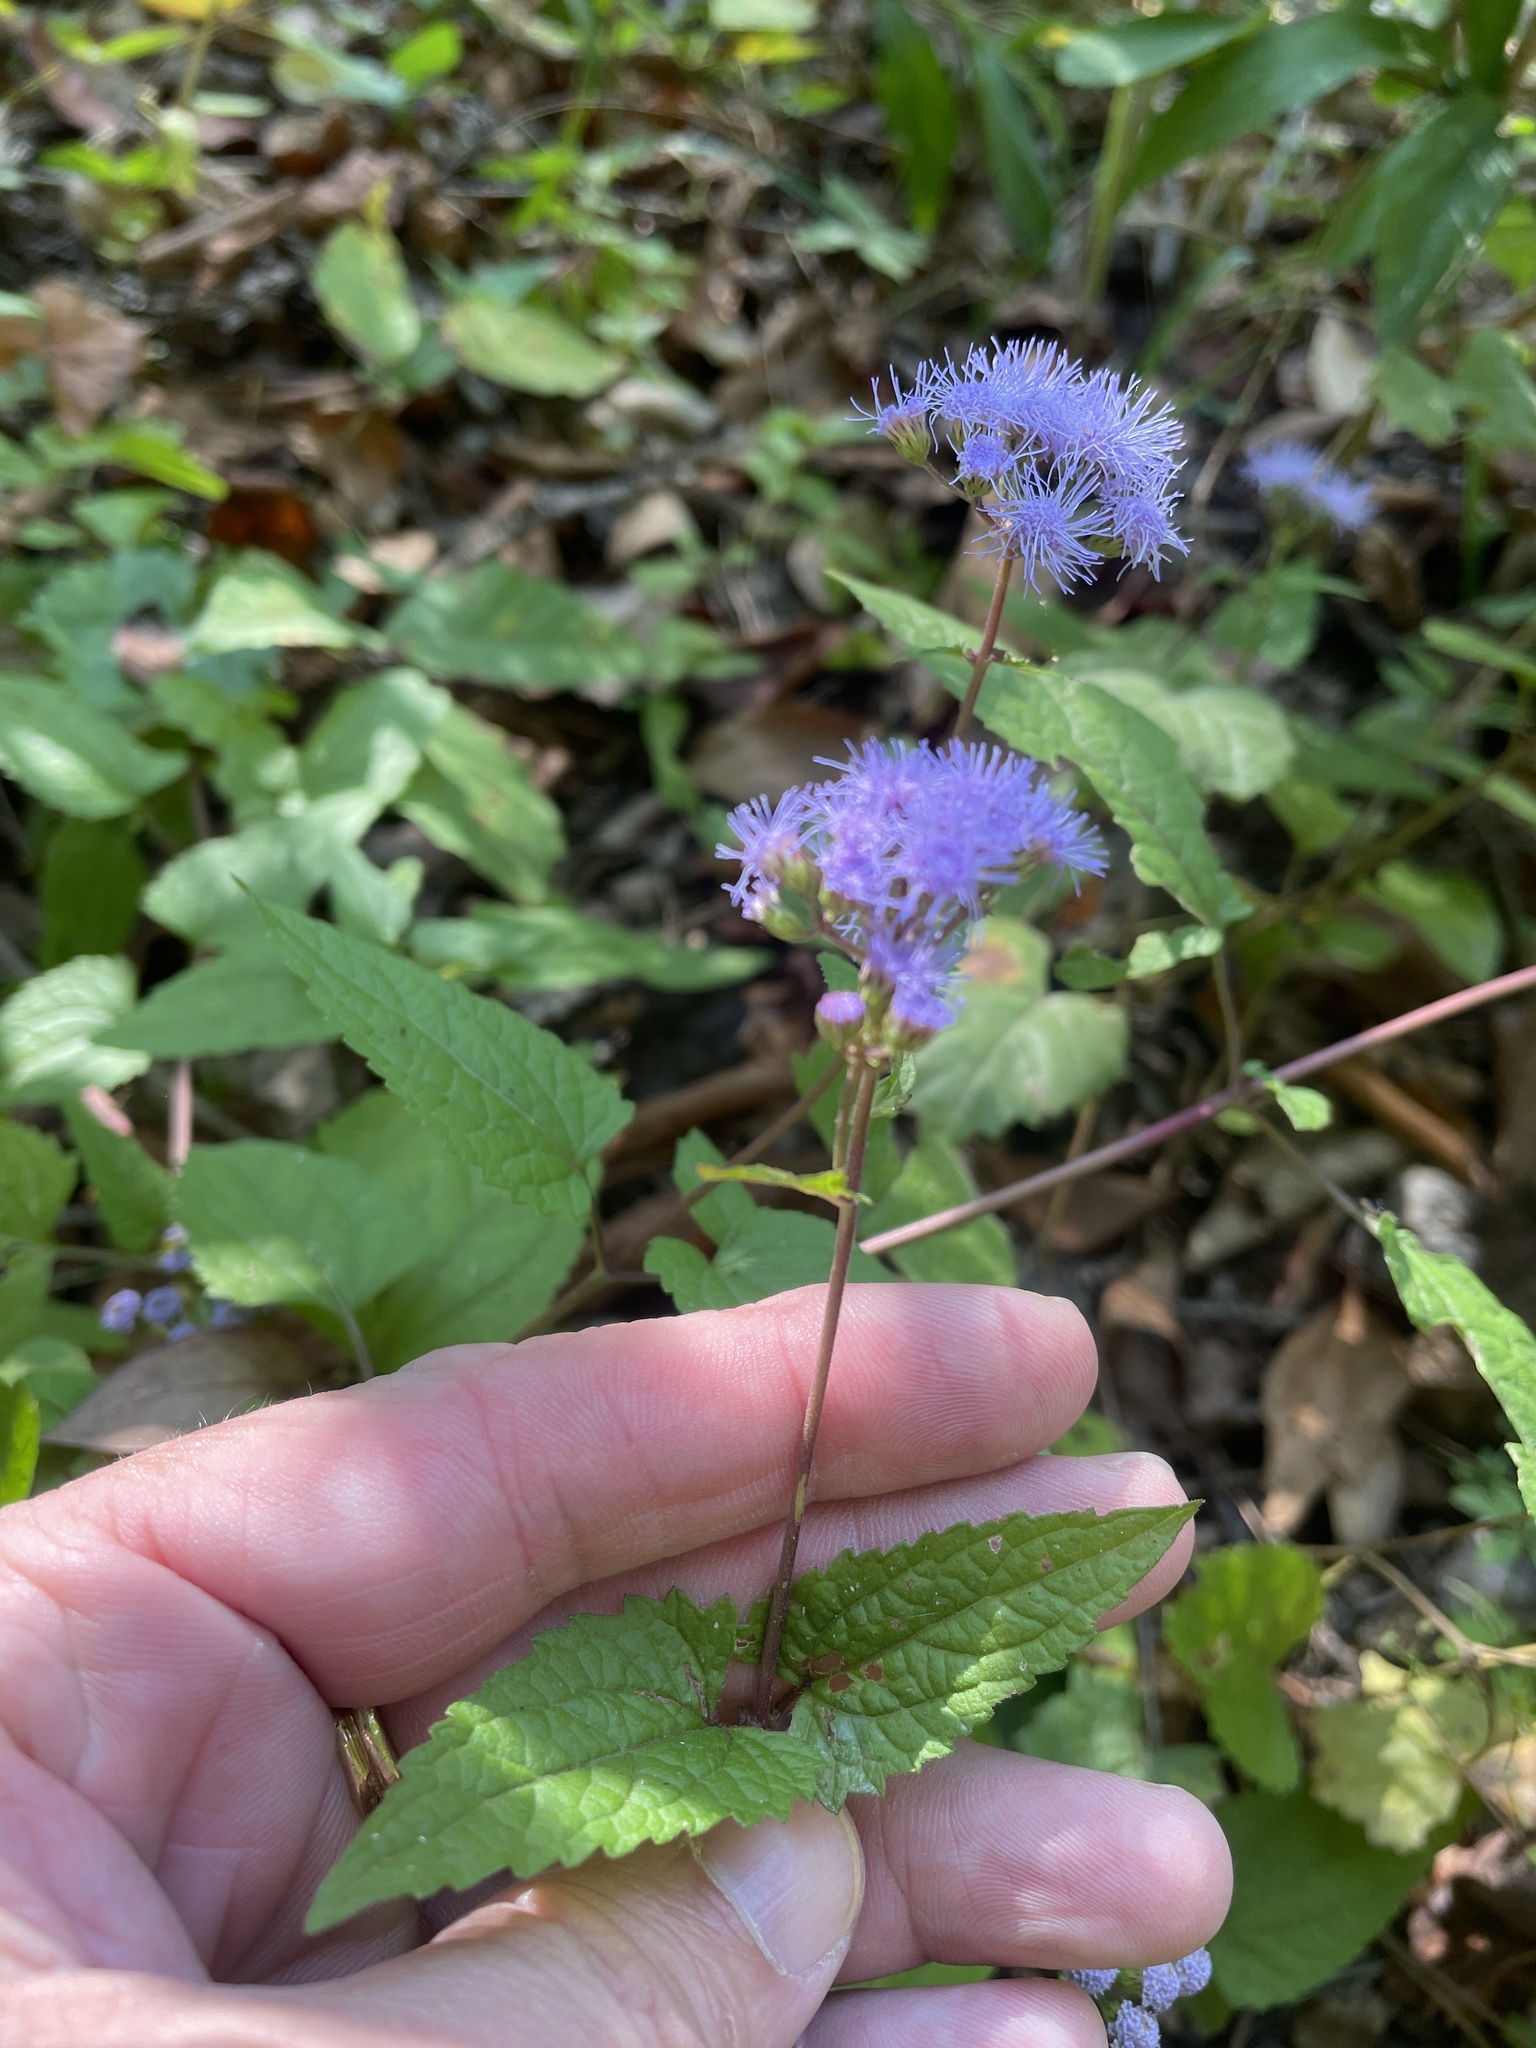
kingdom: Plantae
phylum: Tracheophyta
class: Magnoliopsida
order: Asterales
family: Asteraceae
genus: Conoclinium
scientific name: Conoclinium coelestinum
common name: Blue mistflower
